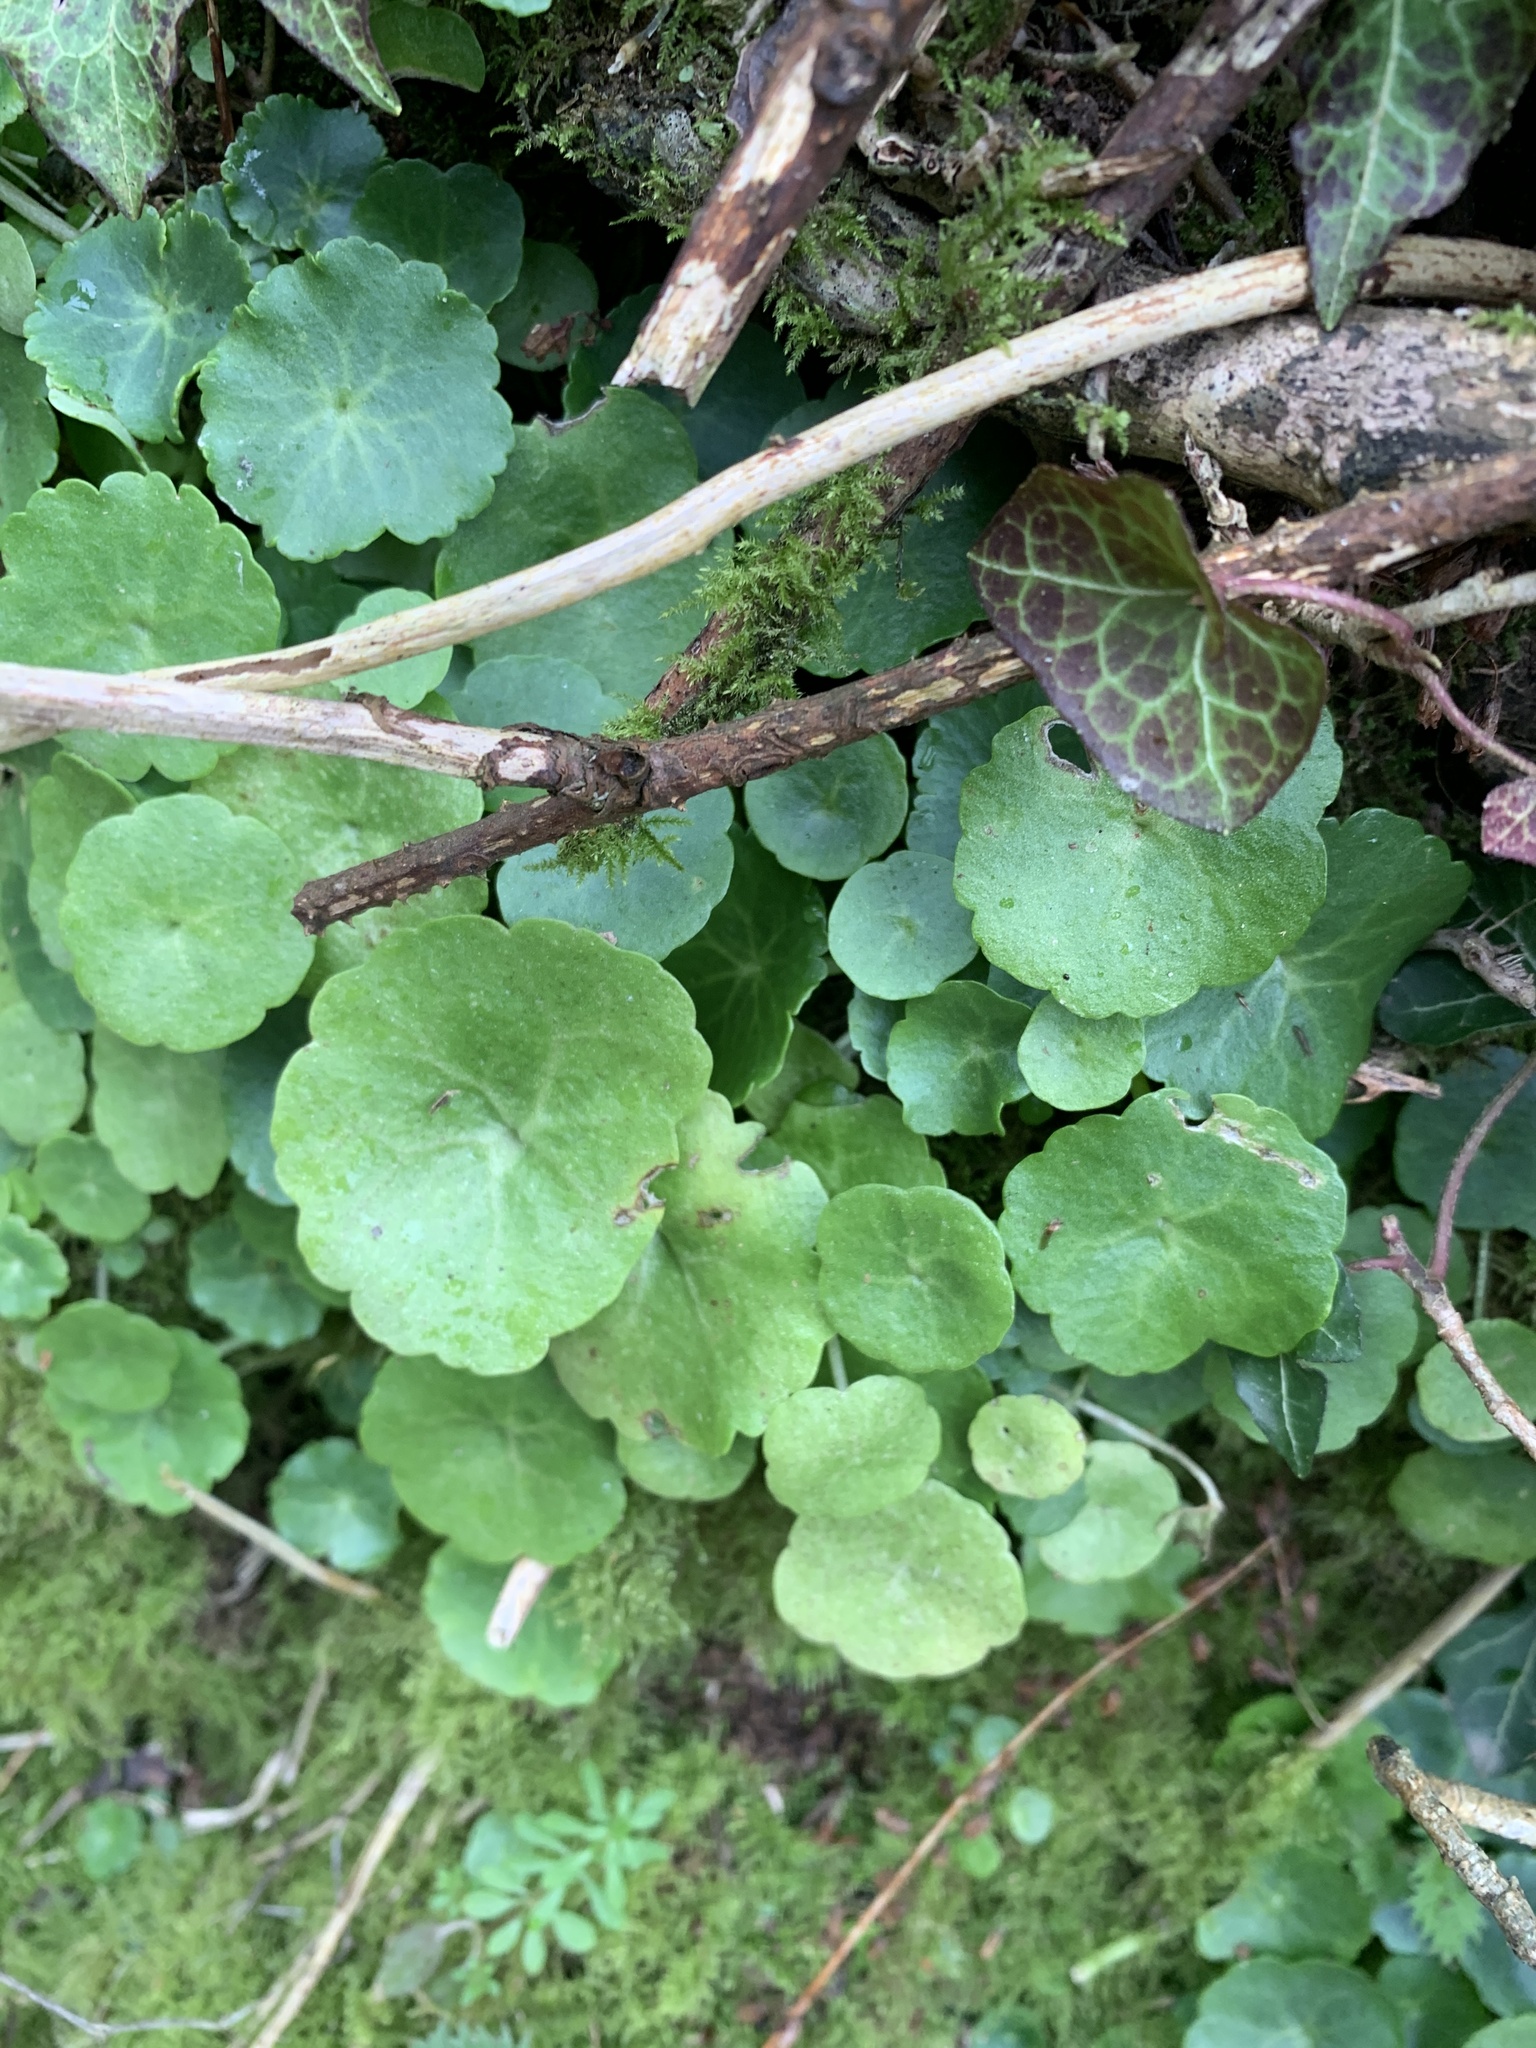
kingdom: Plantae
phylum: Tracheophyta
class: Magnoliopsida
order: Saxifragales
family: Crassulaceae
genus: Umbilicus
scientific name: Umbilicus rupestris
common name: Navelwort
